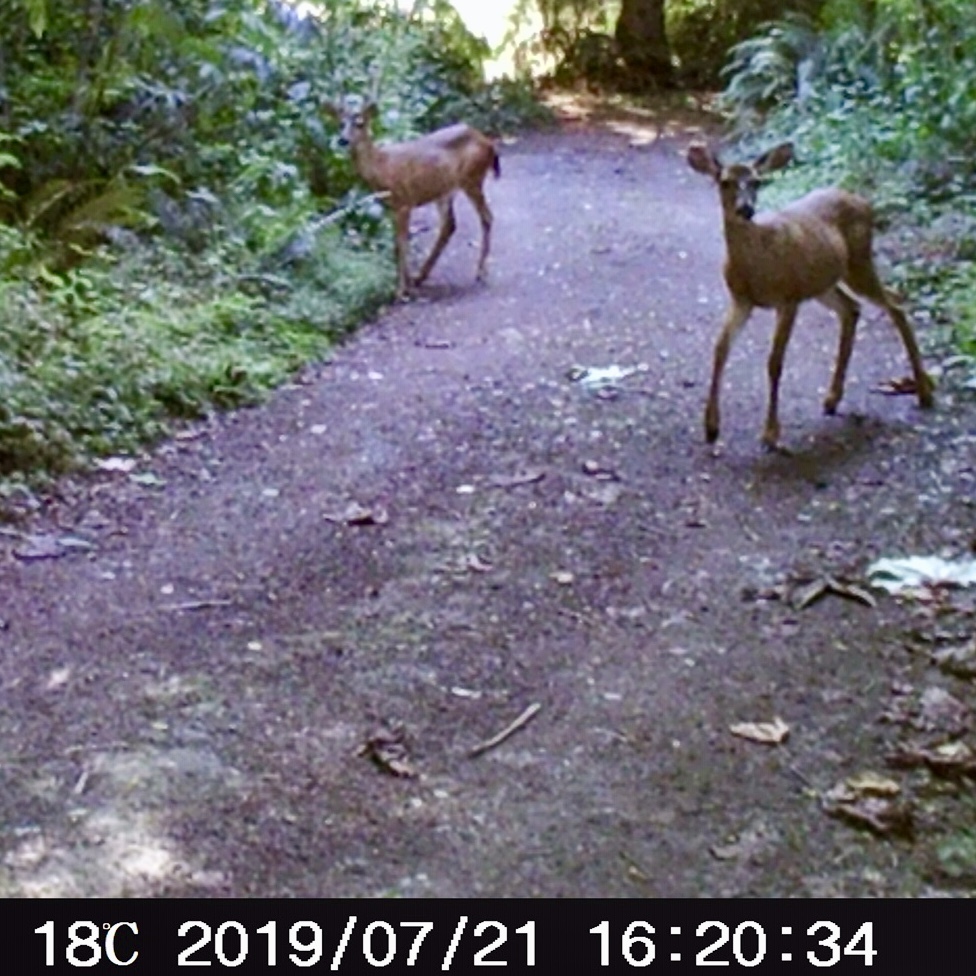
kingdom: Animalia
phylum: Chordata
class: Mammalia
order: Artiodactyla
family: Cervidae
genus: Odocoileus
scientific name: Odocoileus hemionus
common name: Mule deer
